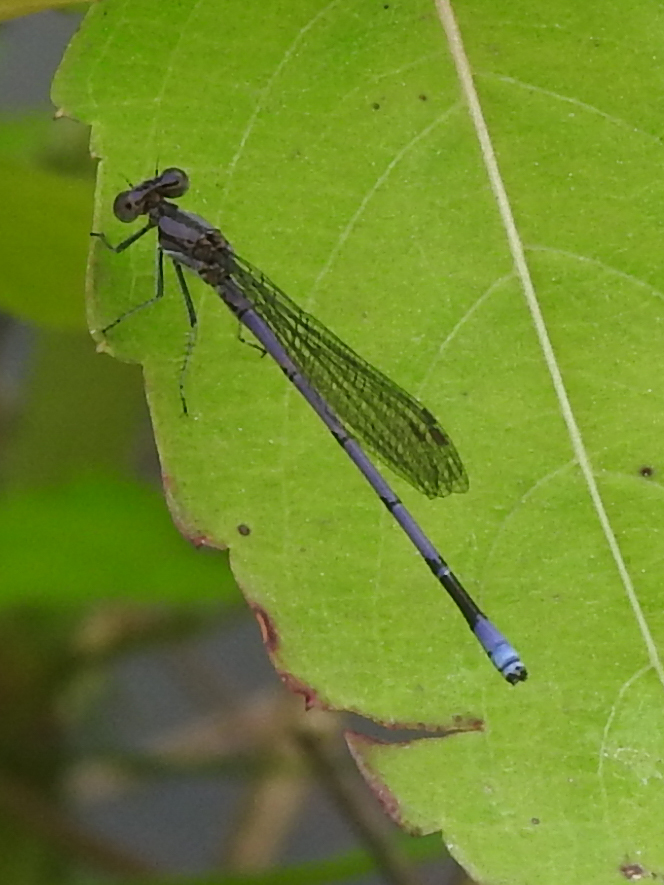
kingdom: Animalia
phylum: Arthropoda
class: Insecta
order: Odonata
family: Coenagrionidae
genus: Argia
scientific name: Argia fumipennis
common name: Variable dancer
